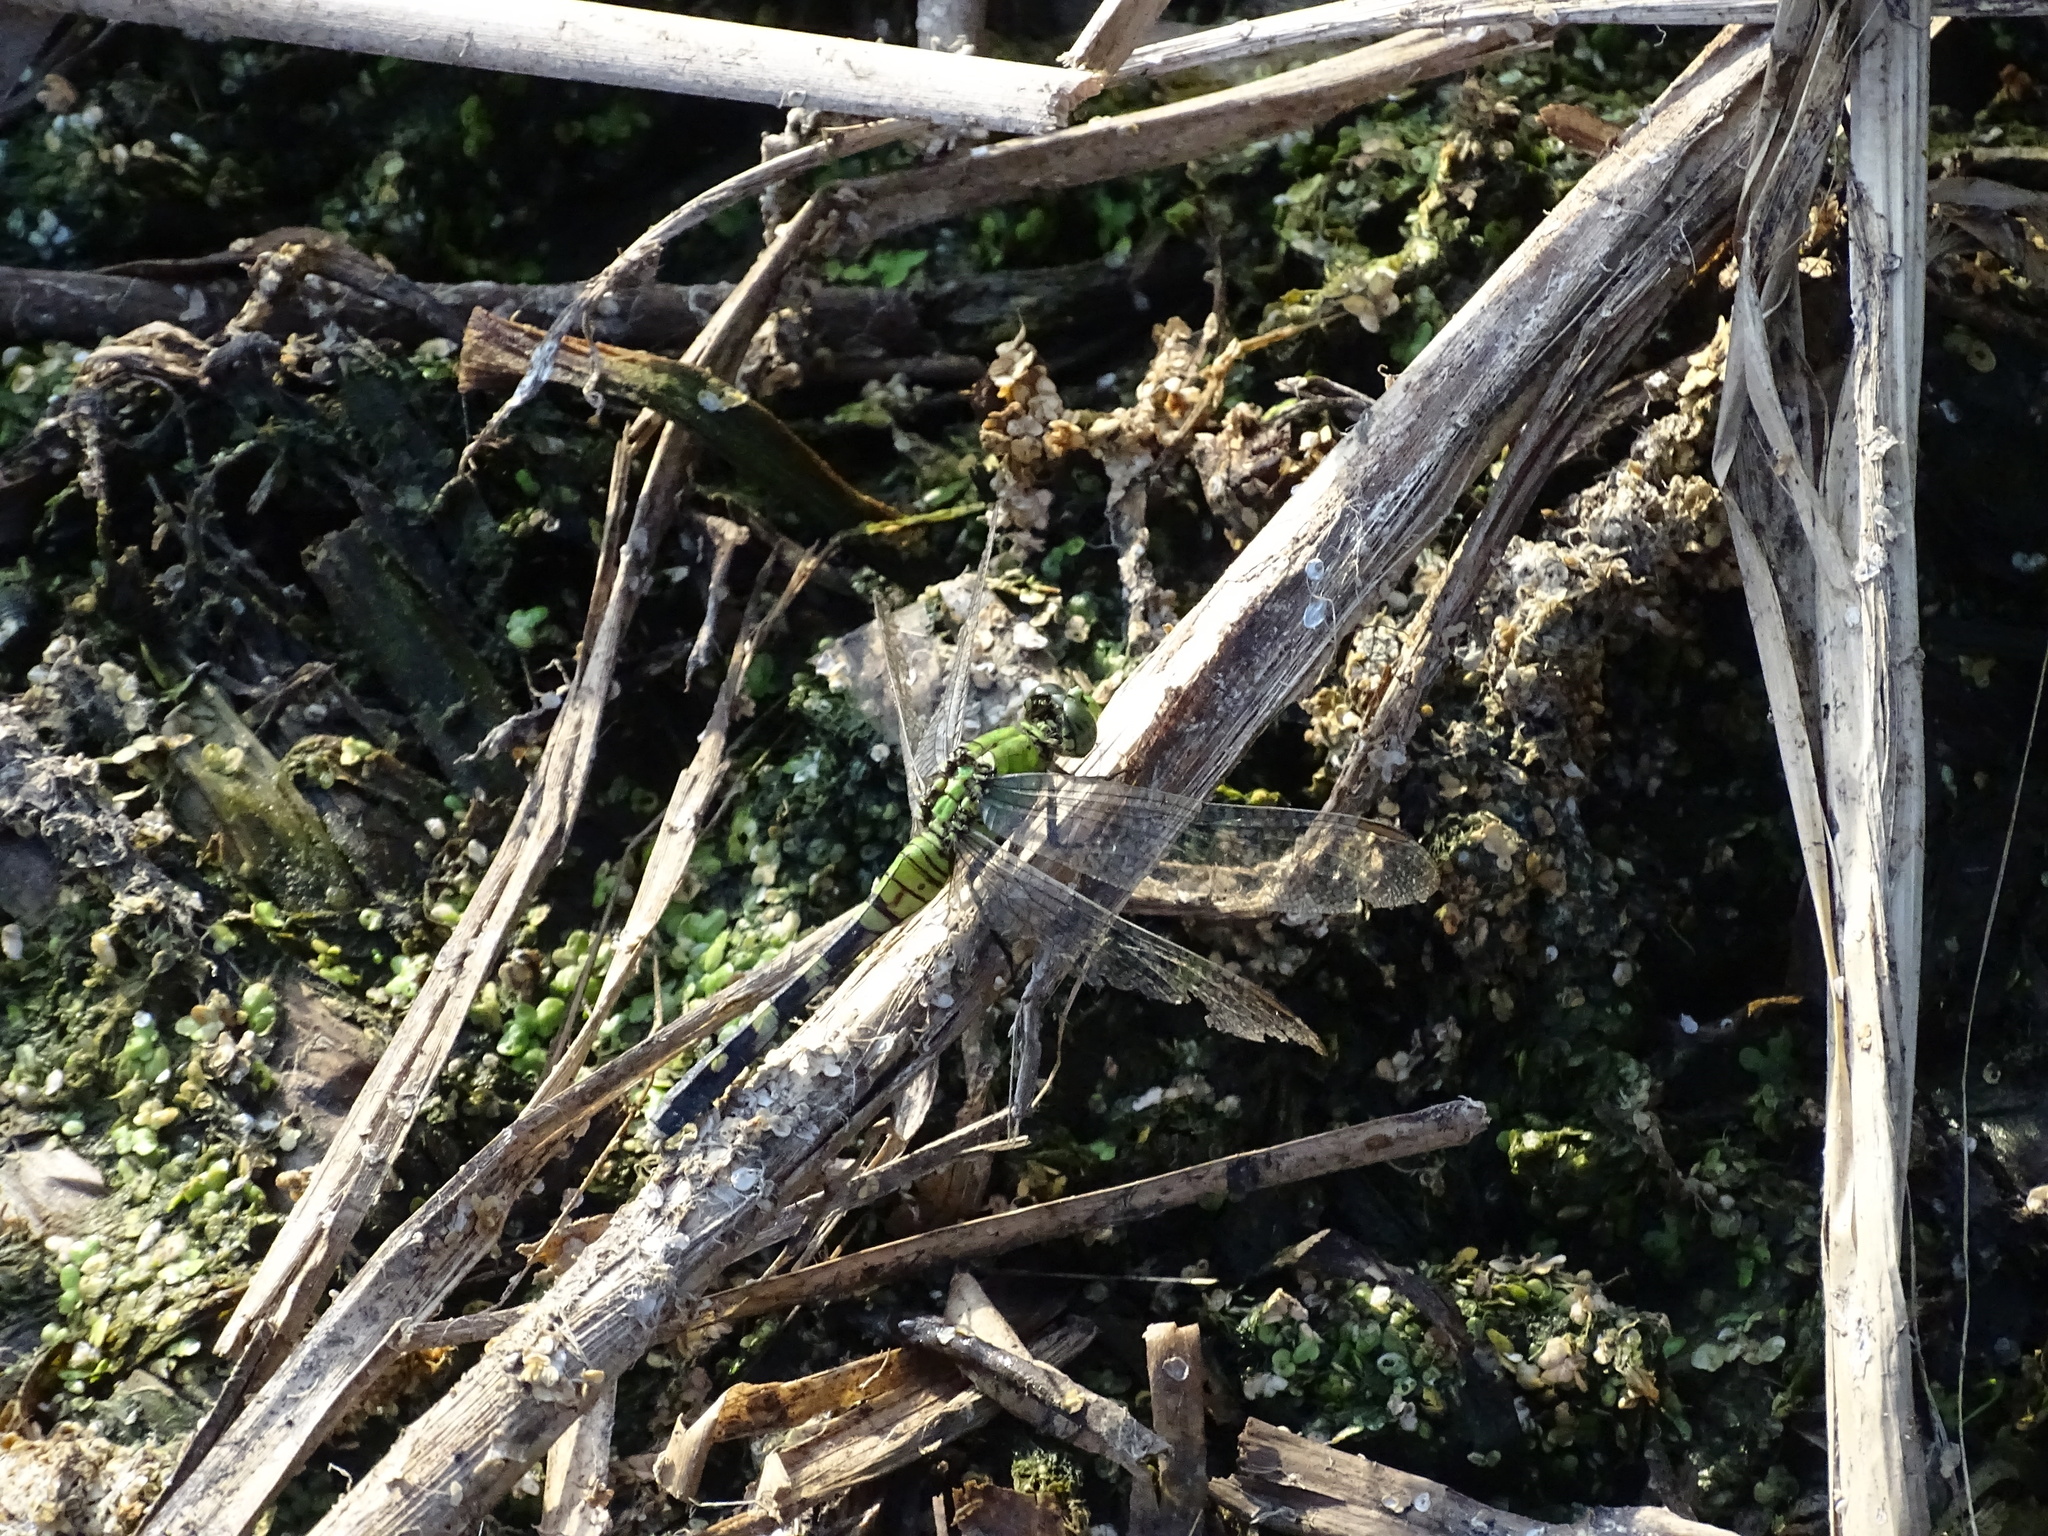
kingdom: Animalia
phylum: Arthropoda
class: Insecta
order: Odonata
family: Libellulidae
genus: Erythemis
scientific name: Erythemis simplicicollis
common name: Eastern pondhawk
